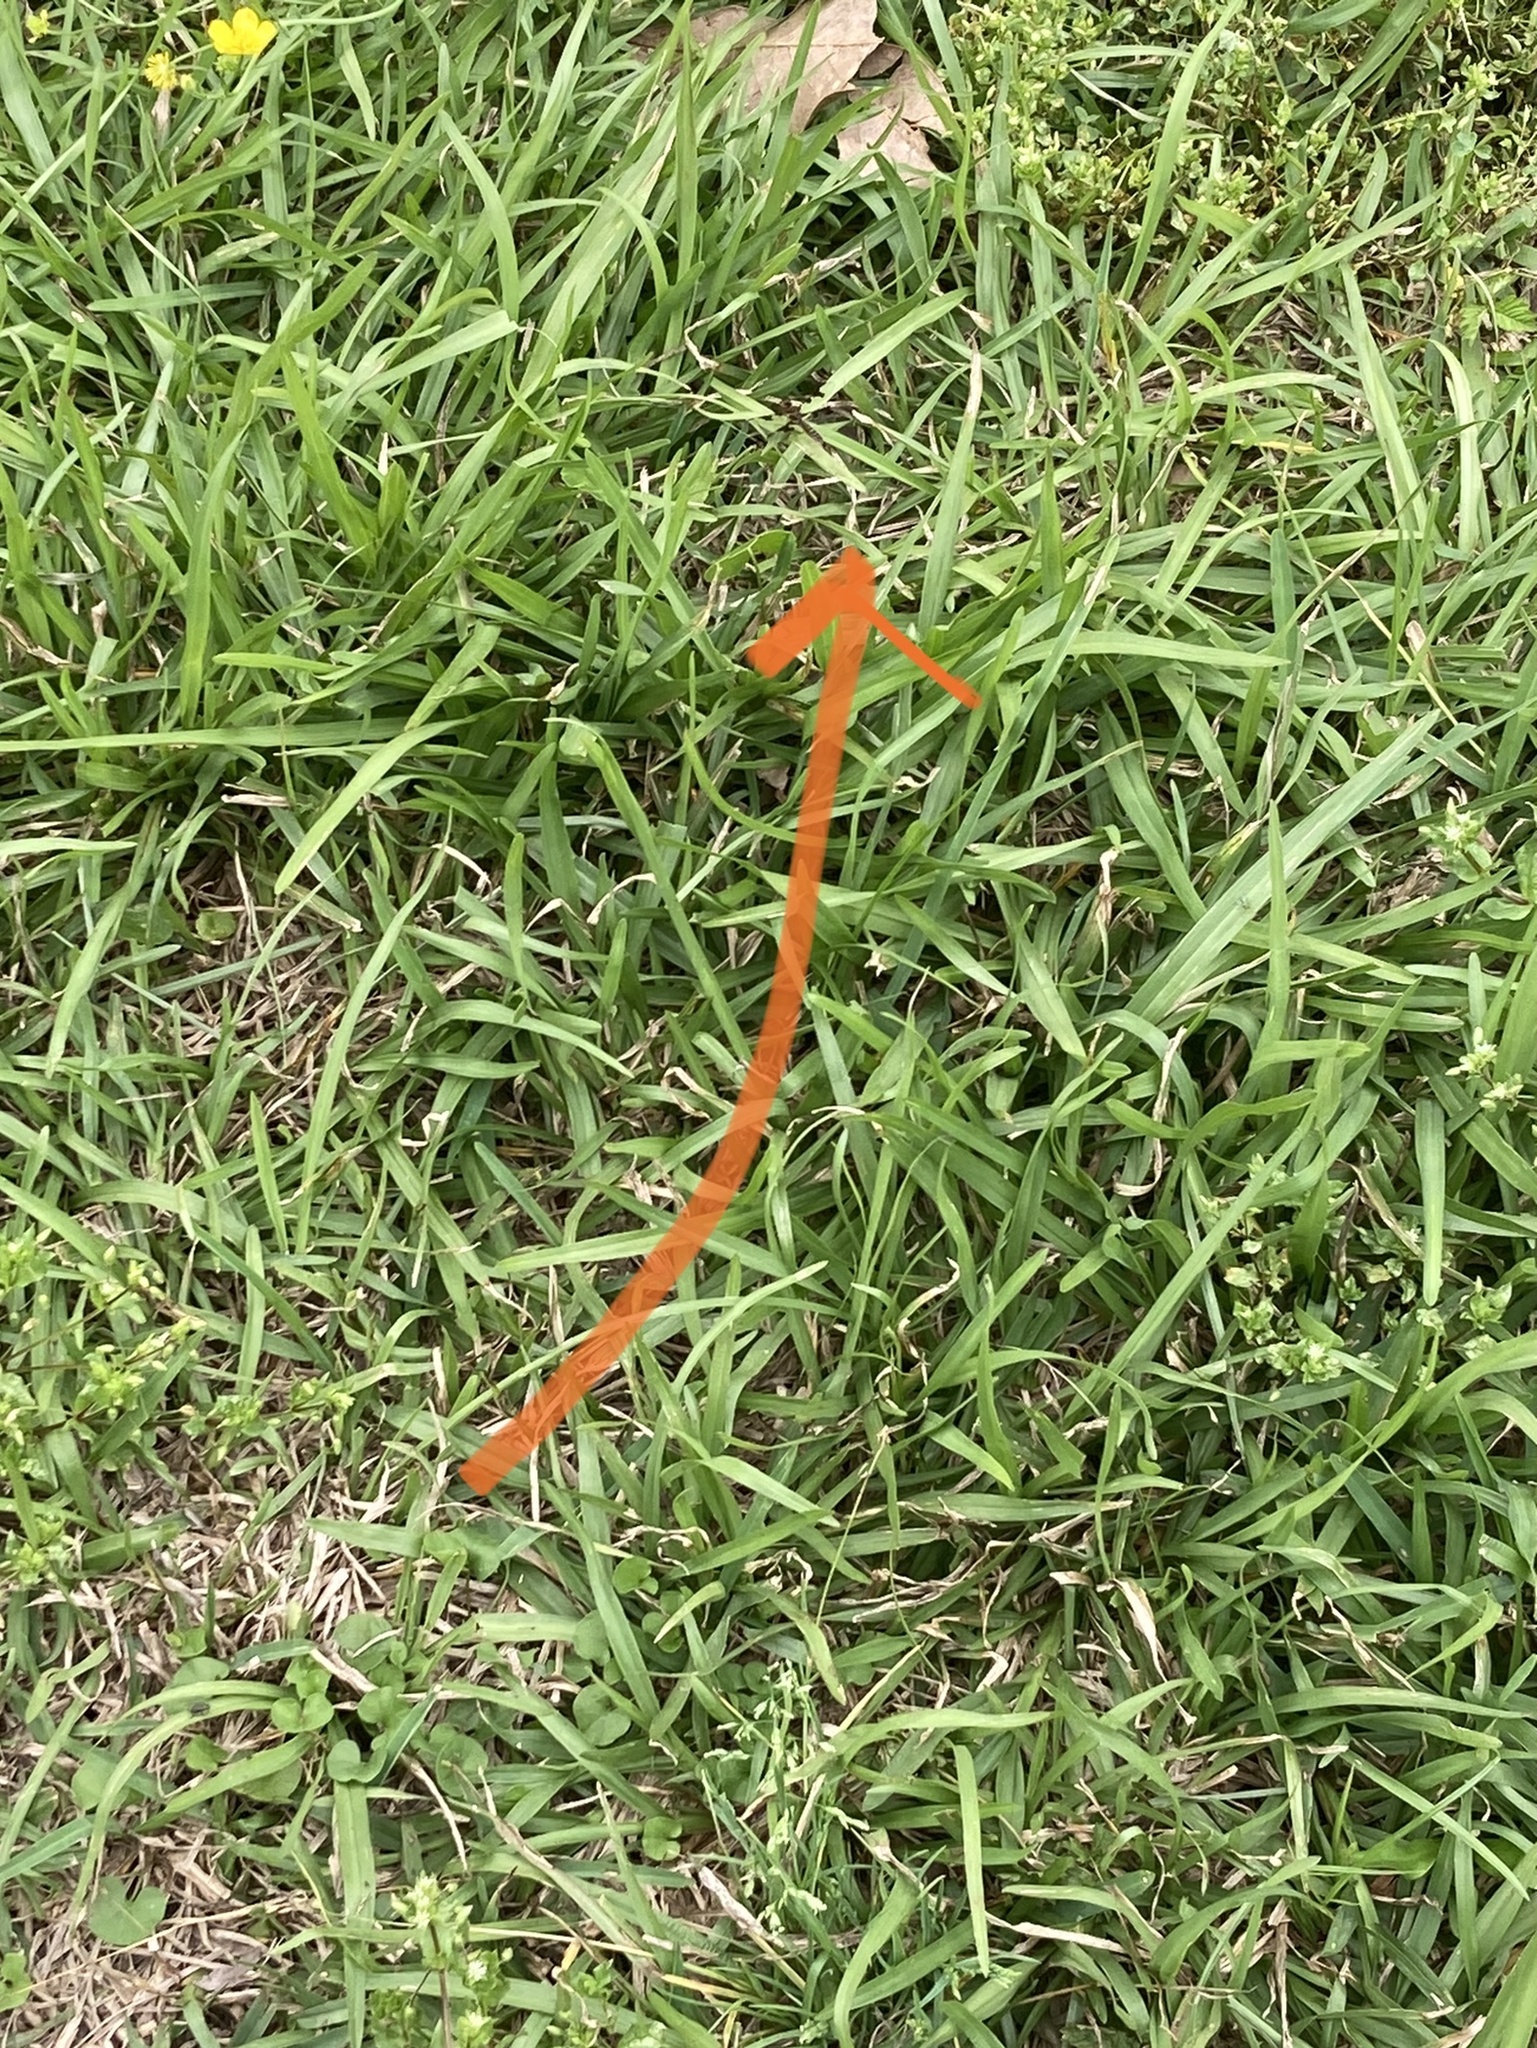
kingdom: Animalia
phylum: Arthropoda
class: Insecta
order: Odonata
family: Libellulidae
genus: Perithemis
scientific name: Perithemis tenera
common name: Eastern amberwing
